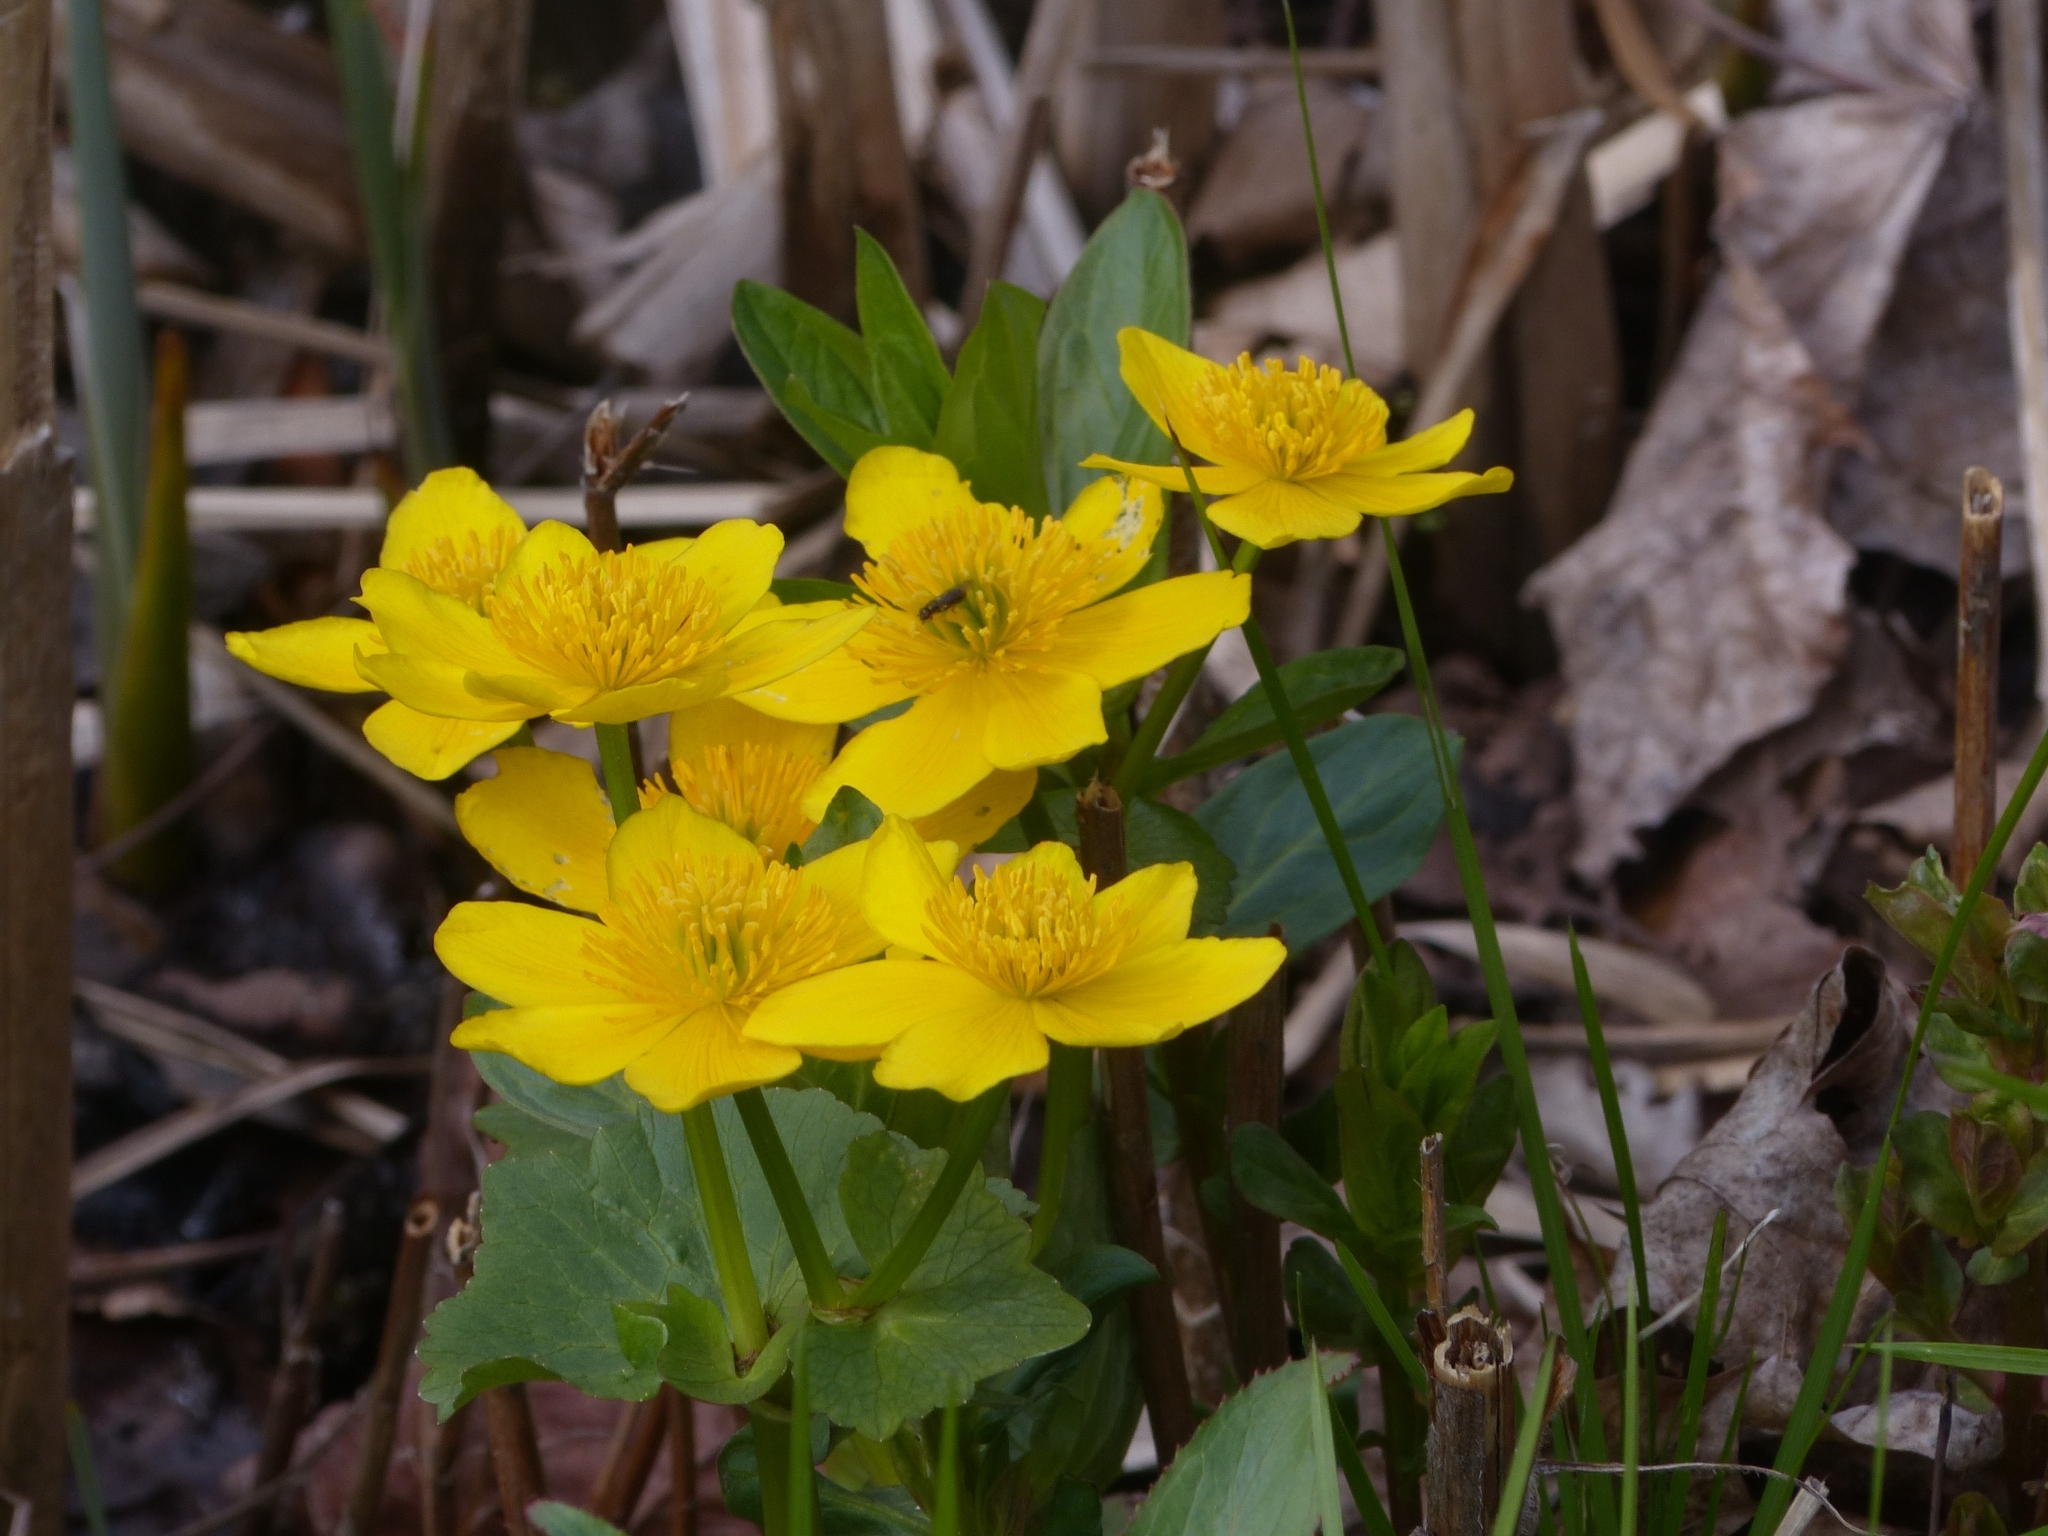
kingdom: Plantae
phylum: Tracheophyta
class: Magnoliopsida
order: Ranunculales
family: Ranunculaceae
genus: Caltha
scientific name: Caltha palustris
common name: Marsh marigold
